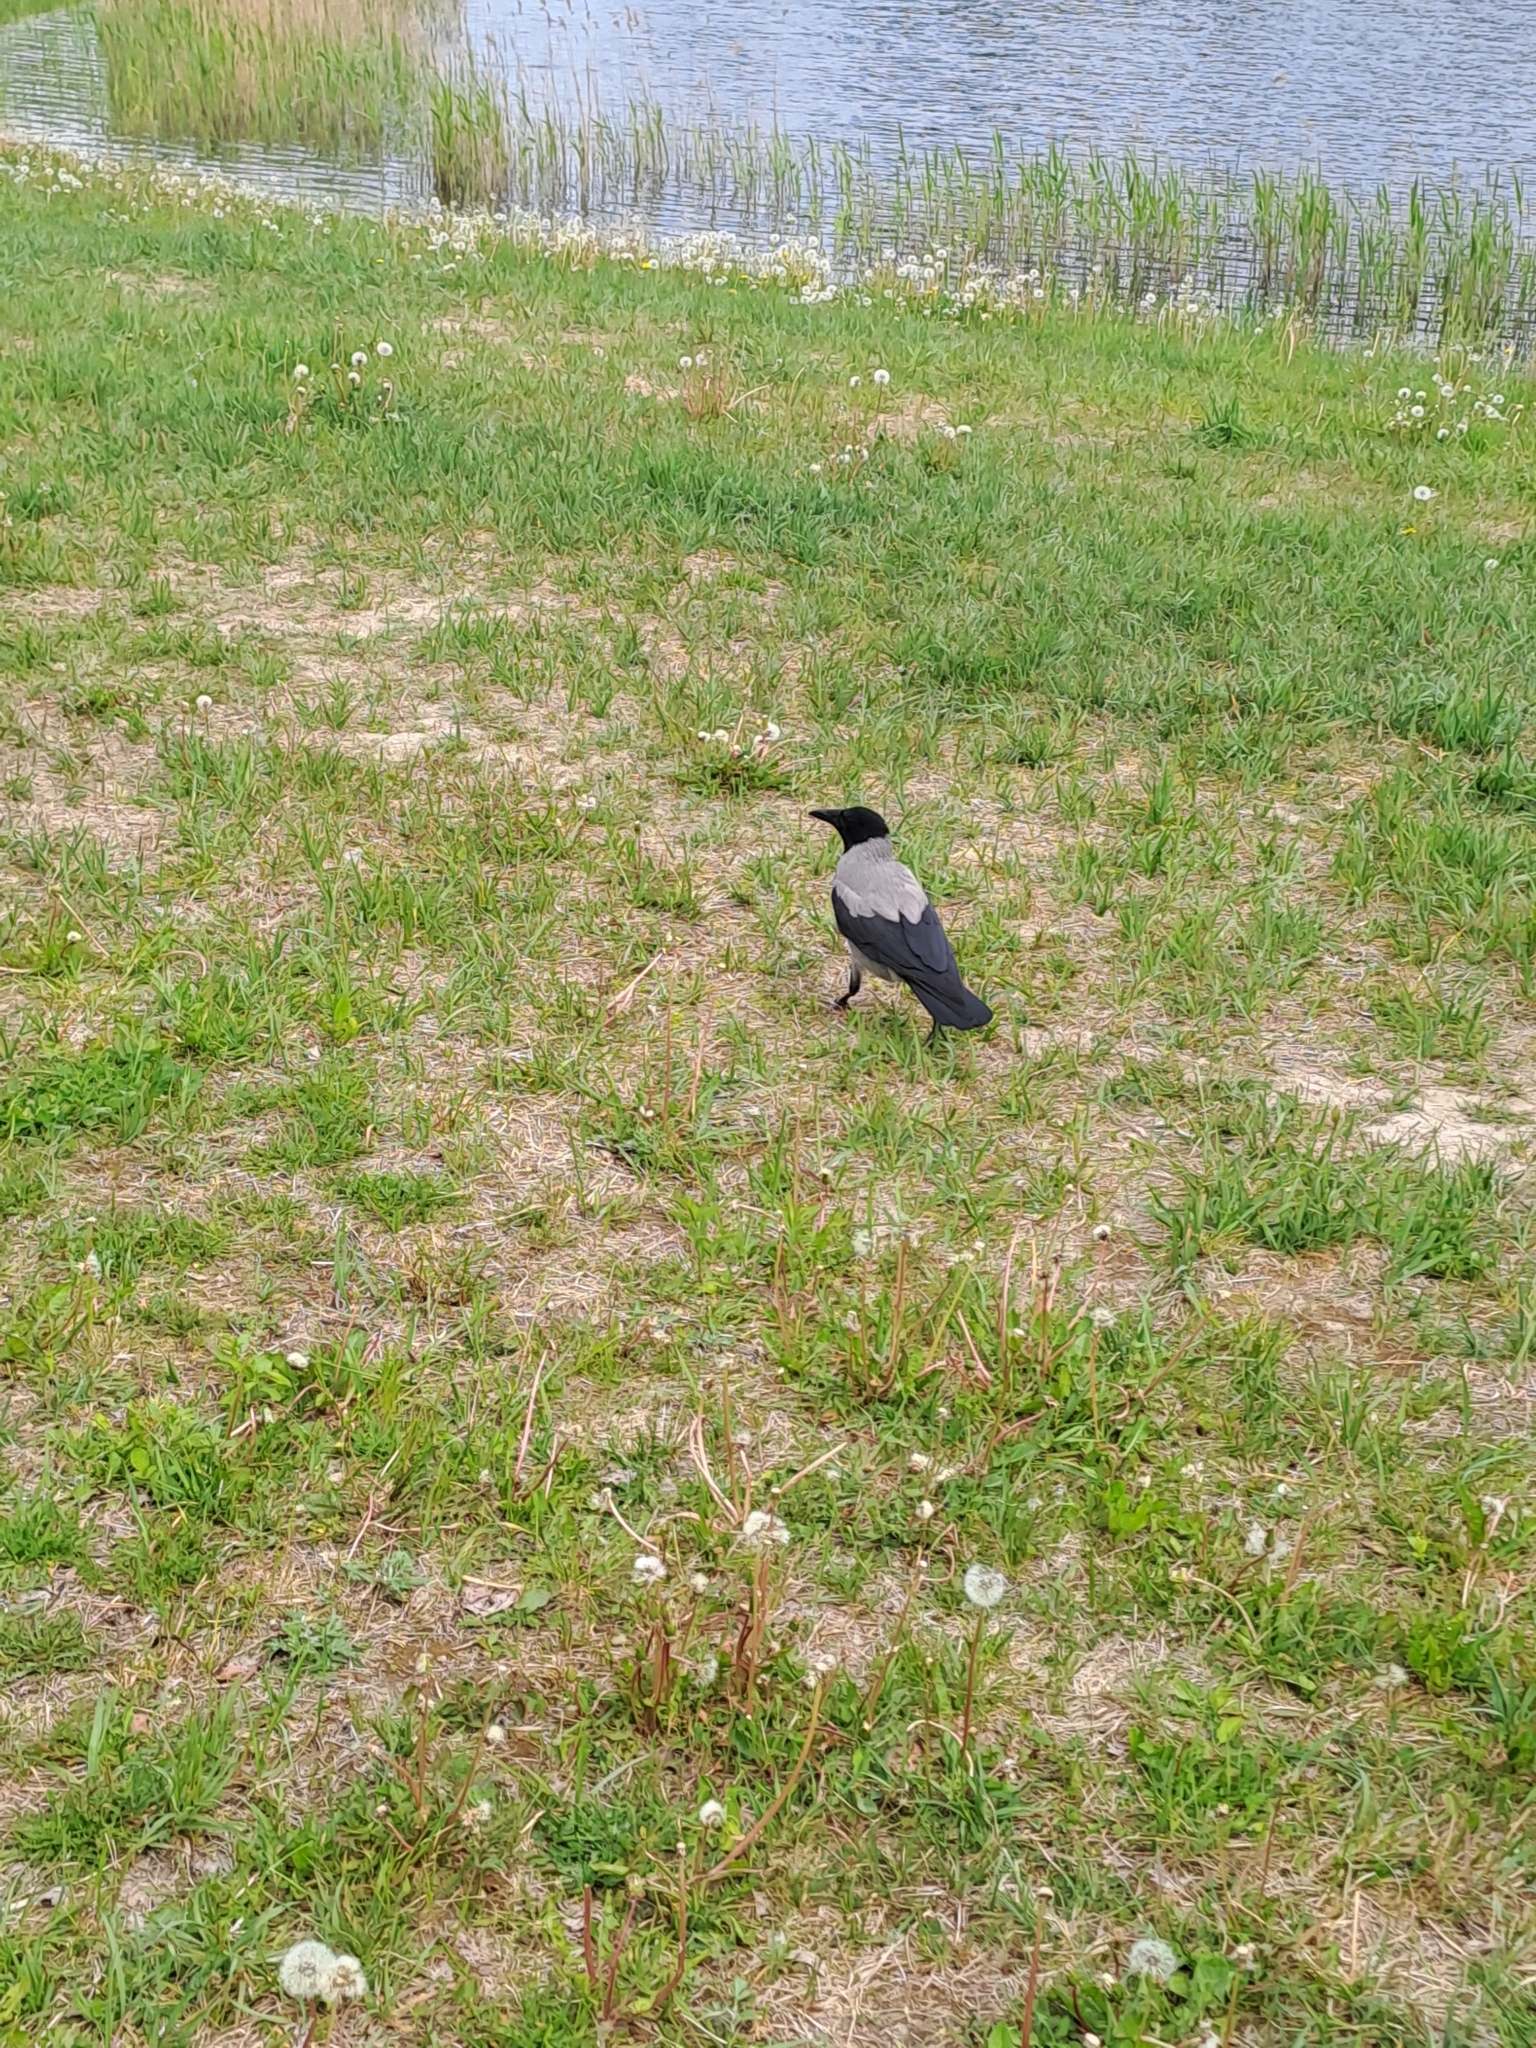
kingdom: Animalia
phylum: Chordata
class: Aves
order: Passeriformes
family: Corvidae
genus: Corvus
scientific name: Corvus cornix
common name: Hooded crow
